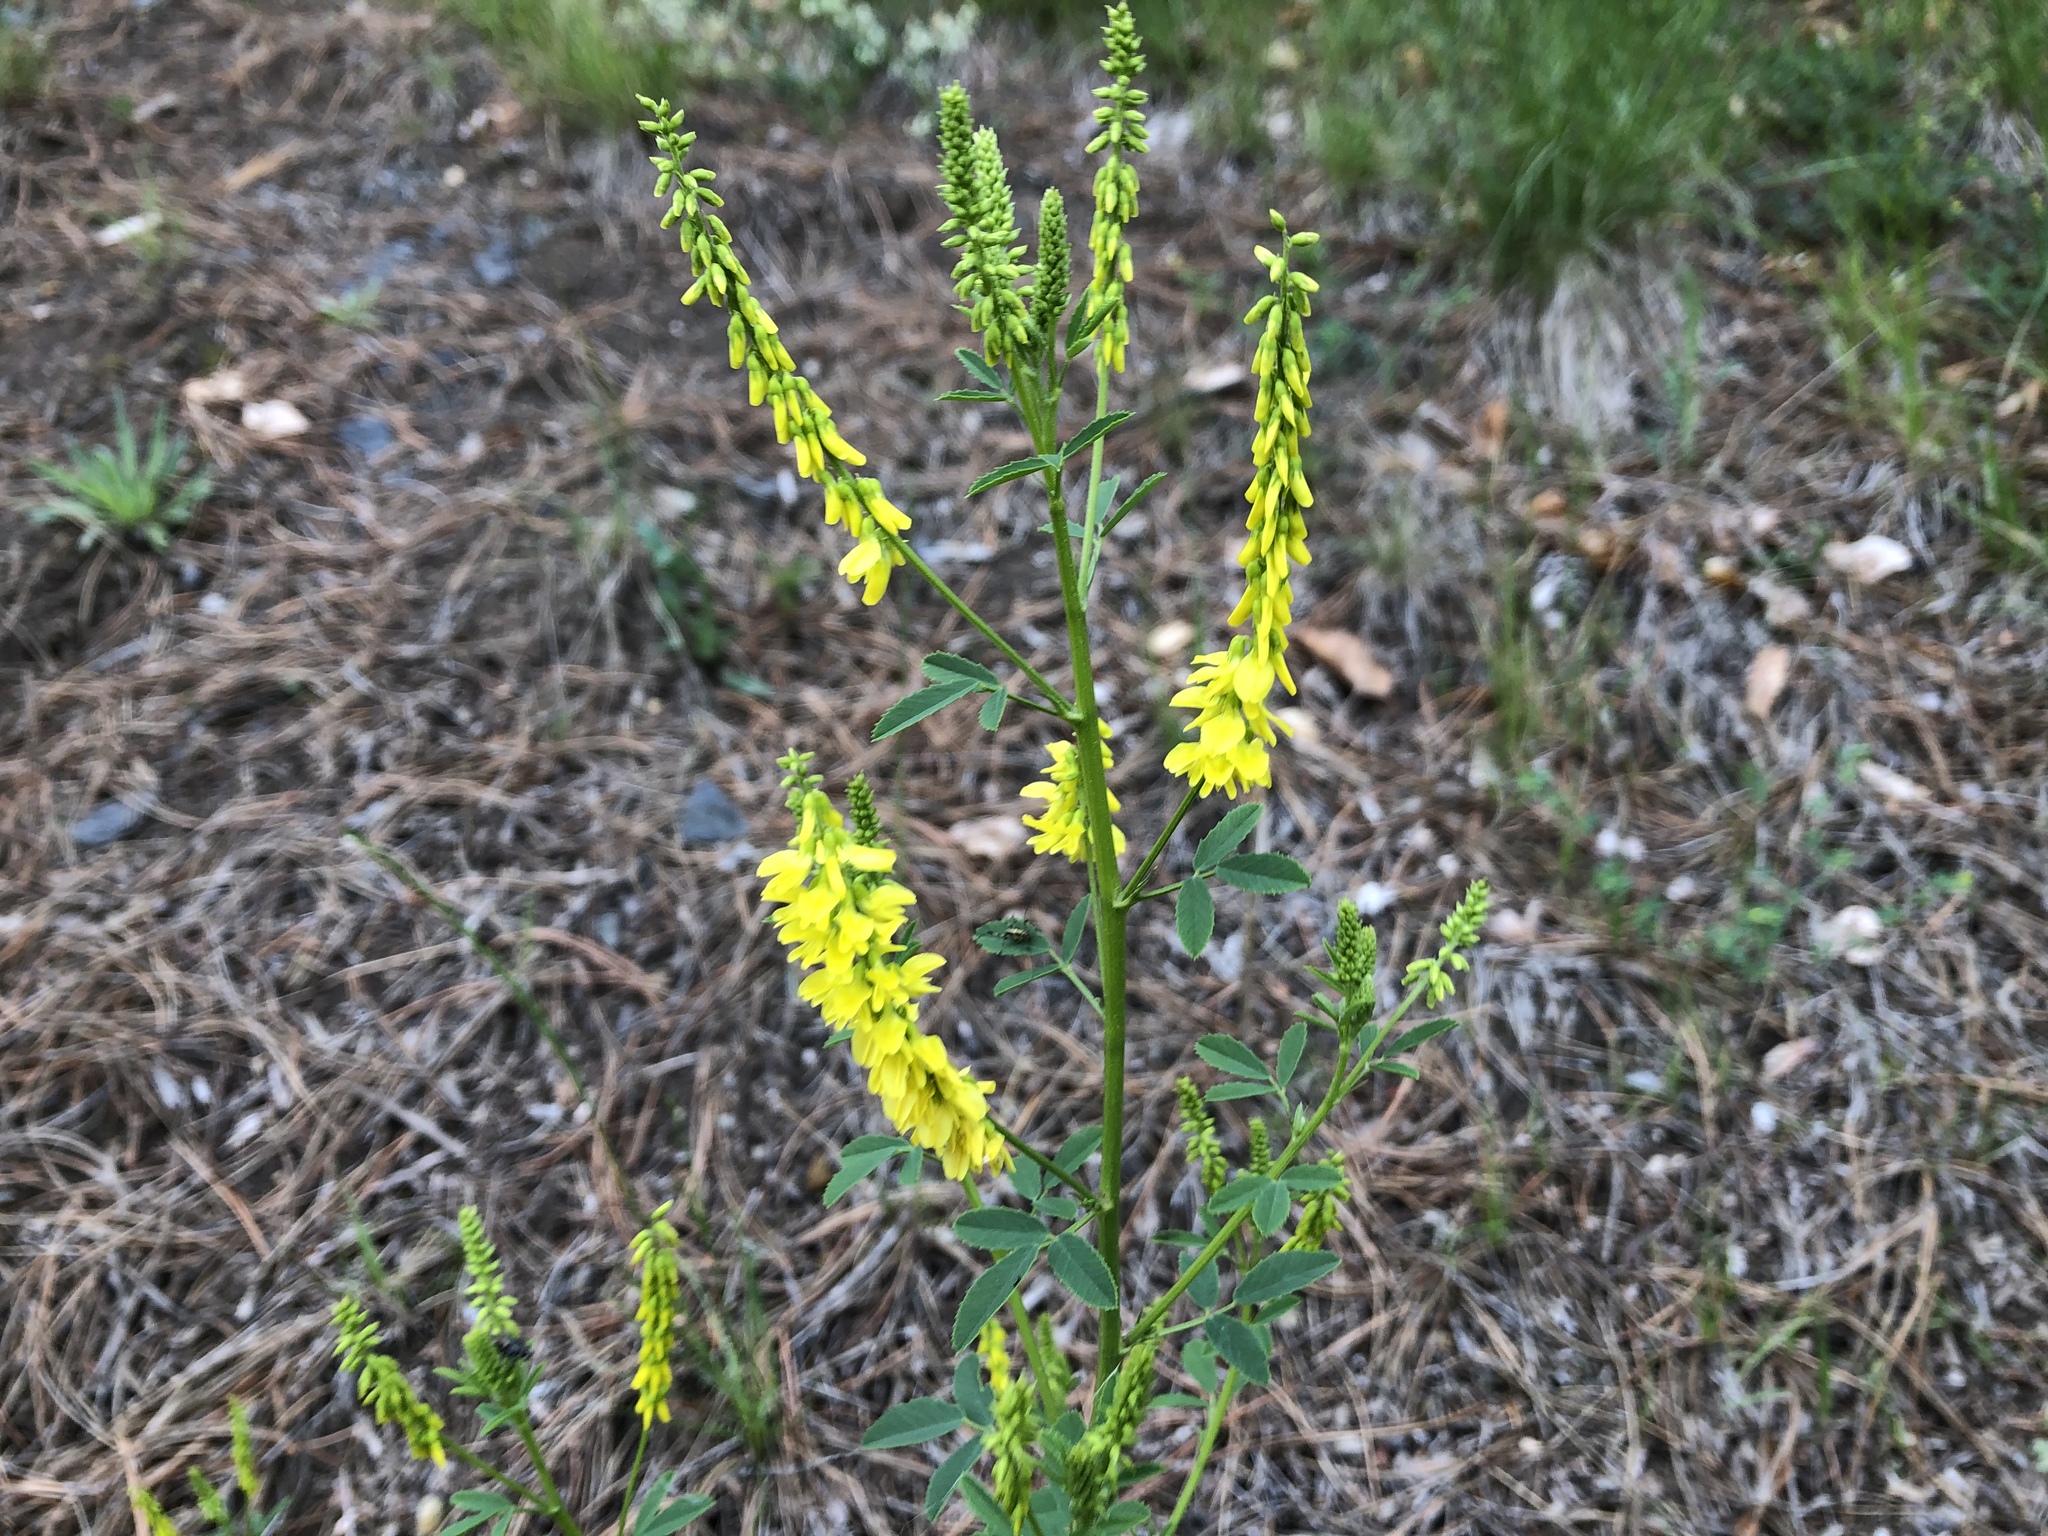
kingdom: Plantae
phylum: Tracheophyta
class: Magnoliopsida
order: Fabales
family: Fabaceae
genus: Melilotus
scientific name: Melilotus officinalis
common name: Sweetclover
